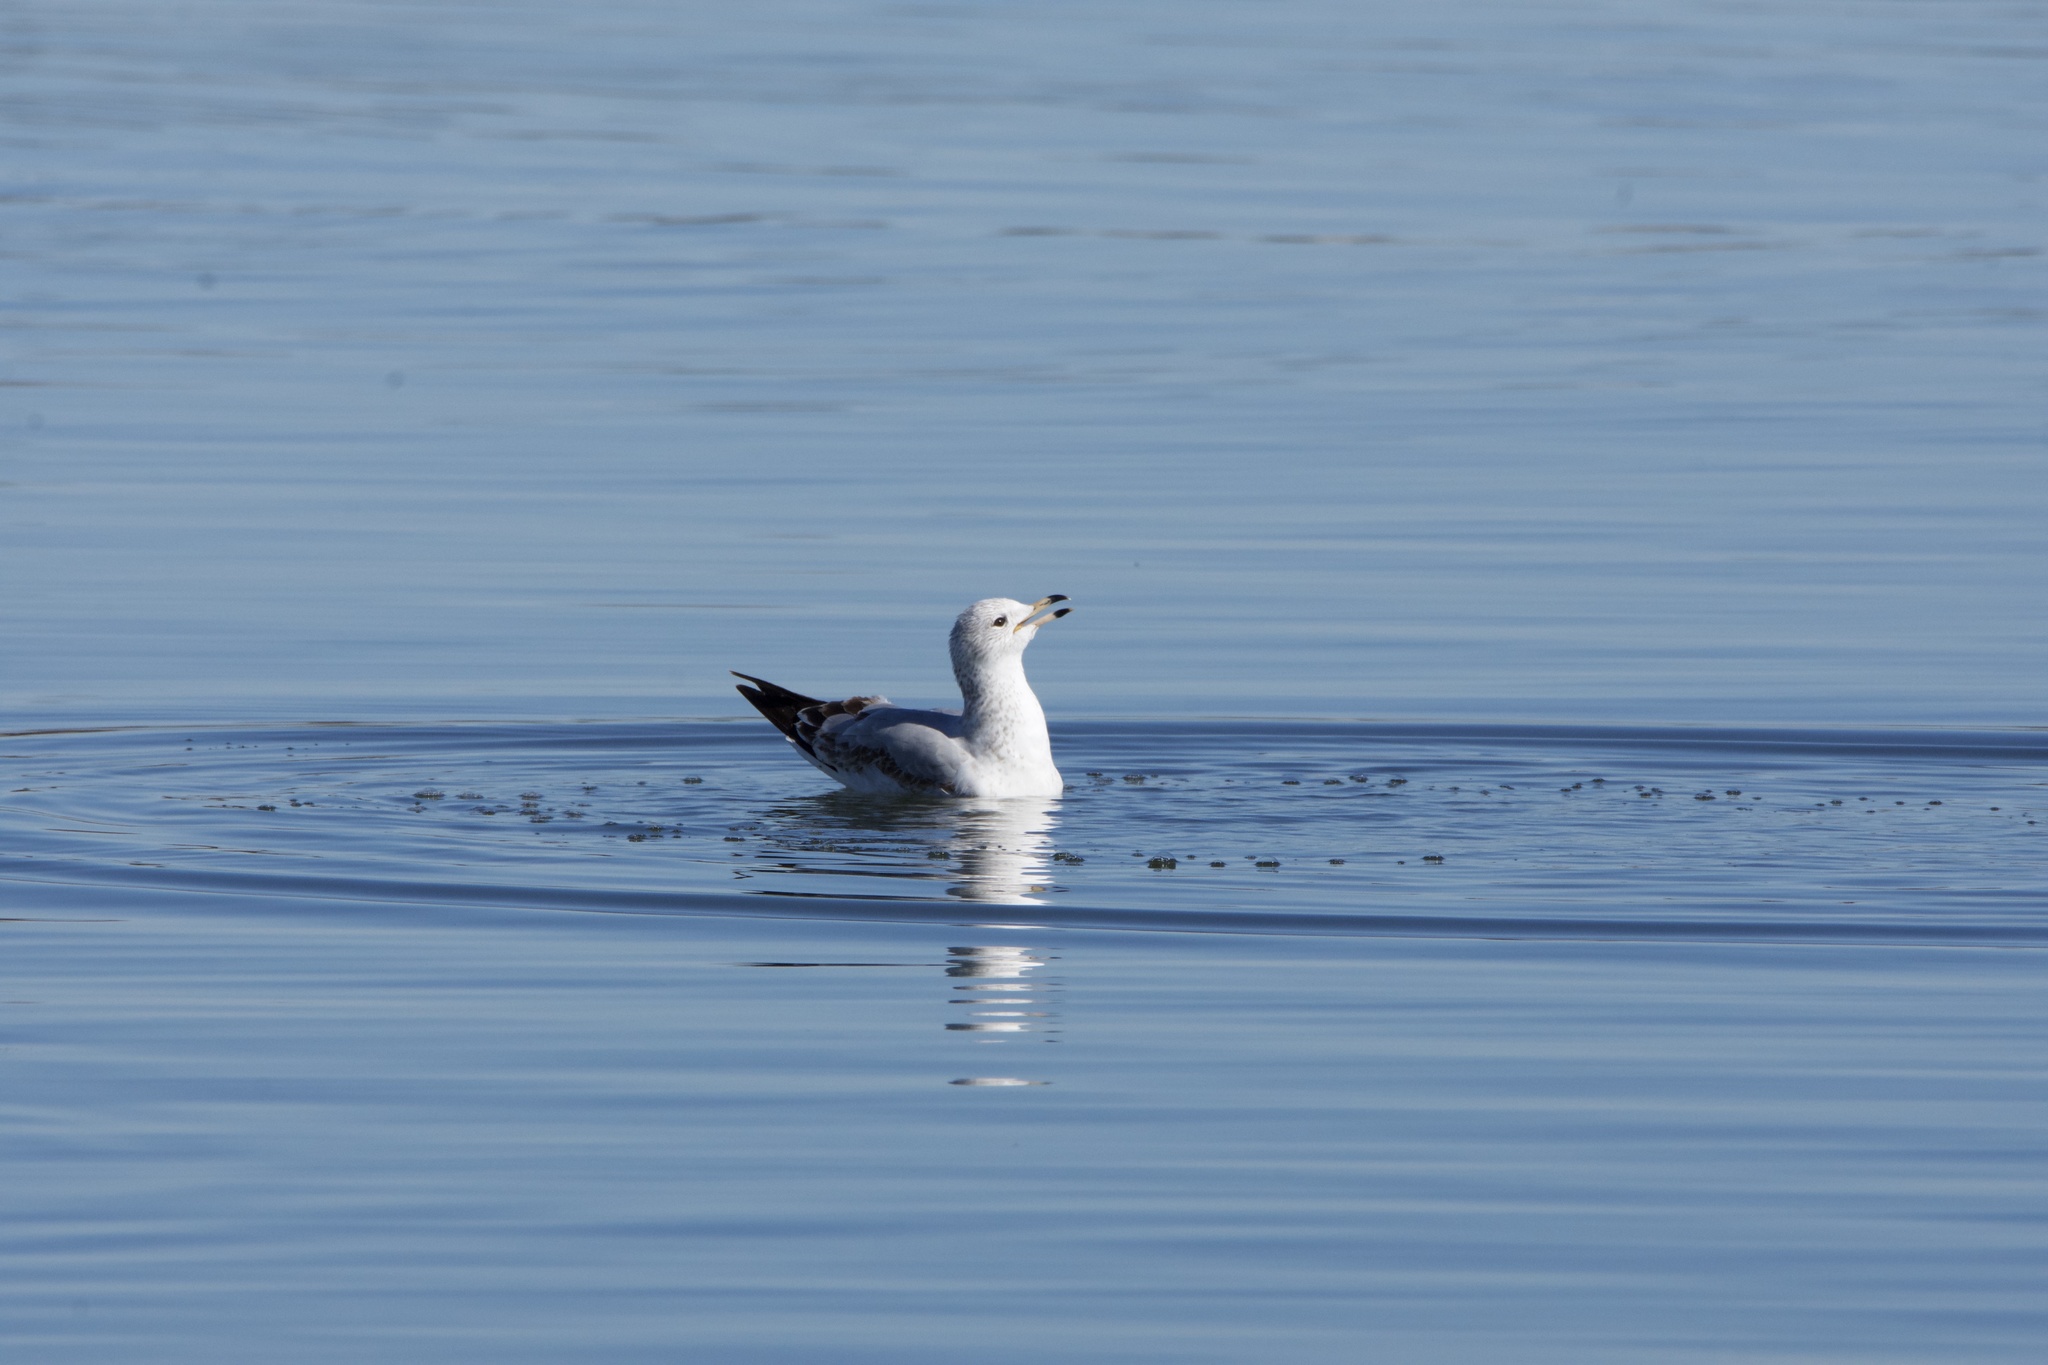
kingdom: Animalia
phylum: Chordata
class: Aves
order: Charadriiformes
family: Laridae
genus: Larus
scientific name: Larus delawarensis
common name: Ring-billed gull
